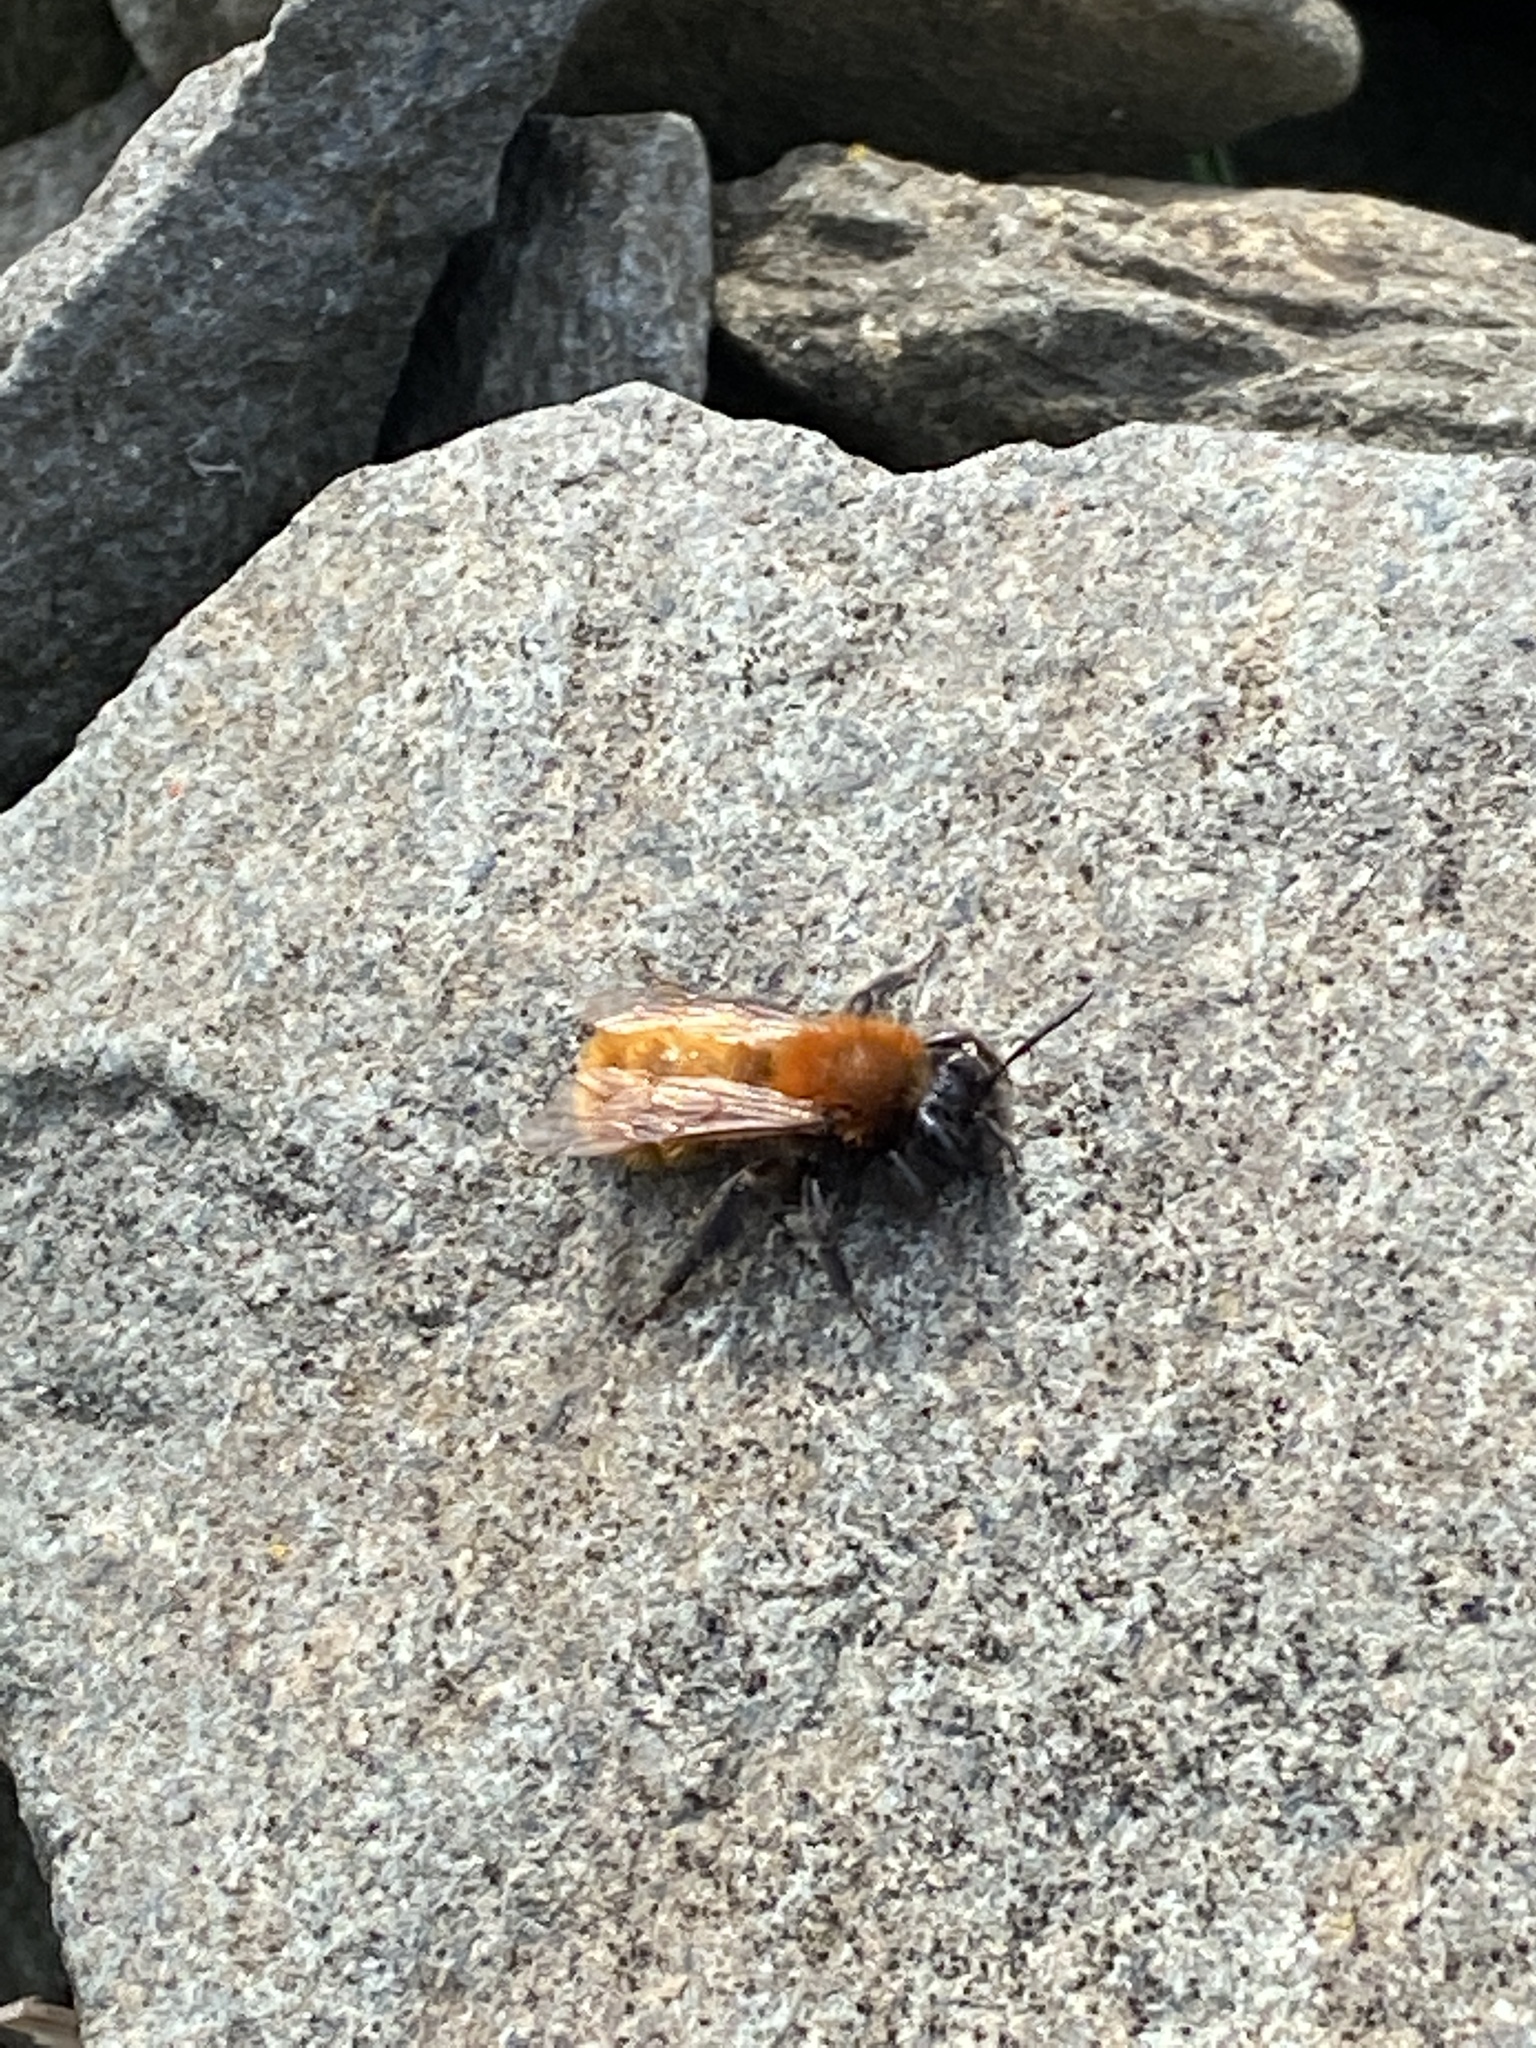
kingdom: Animalia
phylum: Arthropoda
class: Insecta
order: Hymenoptera
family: Andrenidae
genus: Andrena
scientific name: Andrena fulva
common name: Tawny mining bee
